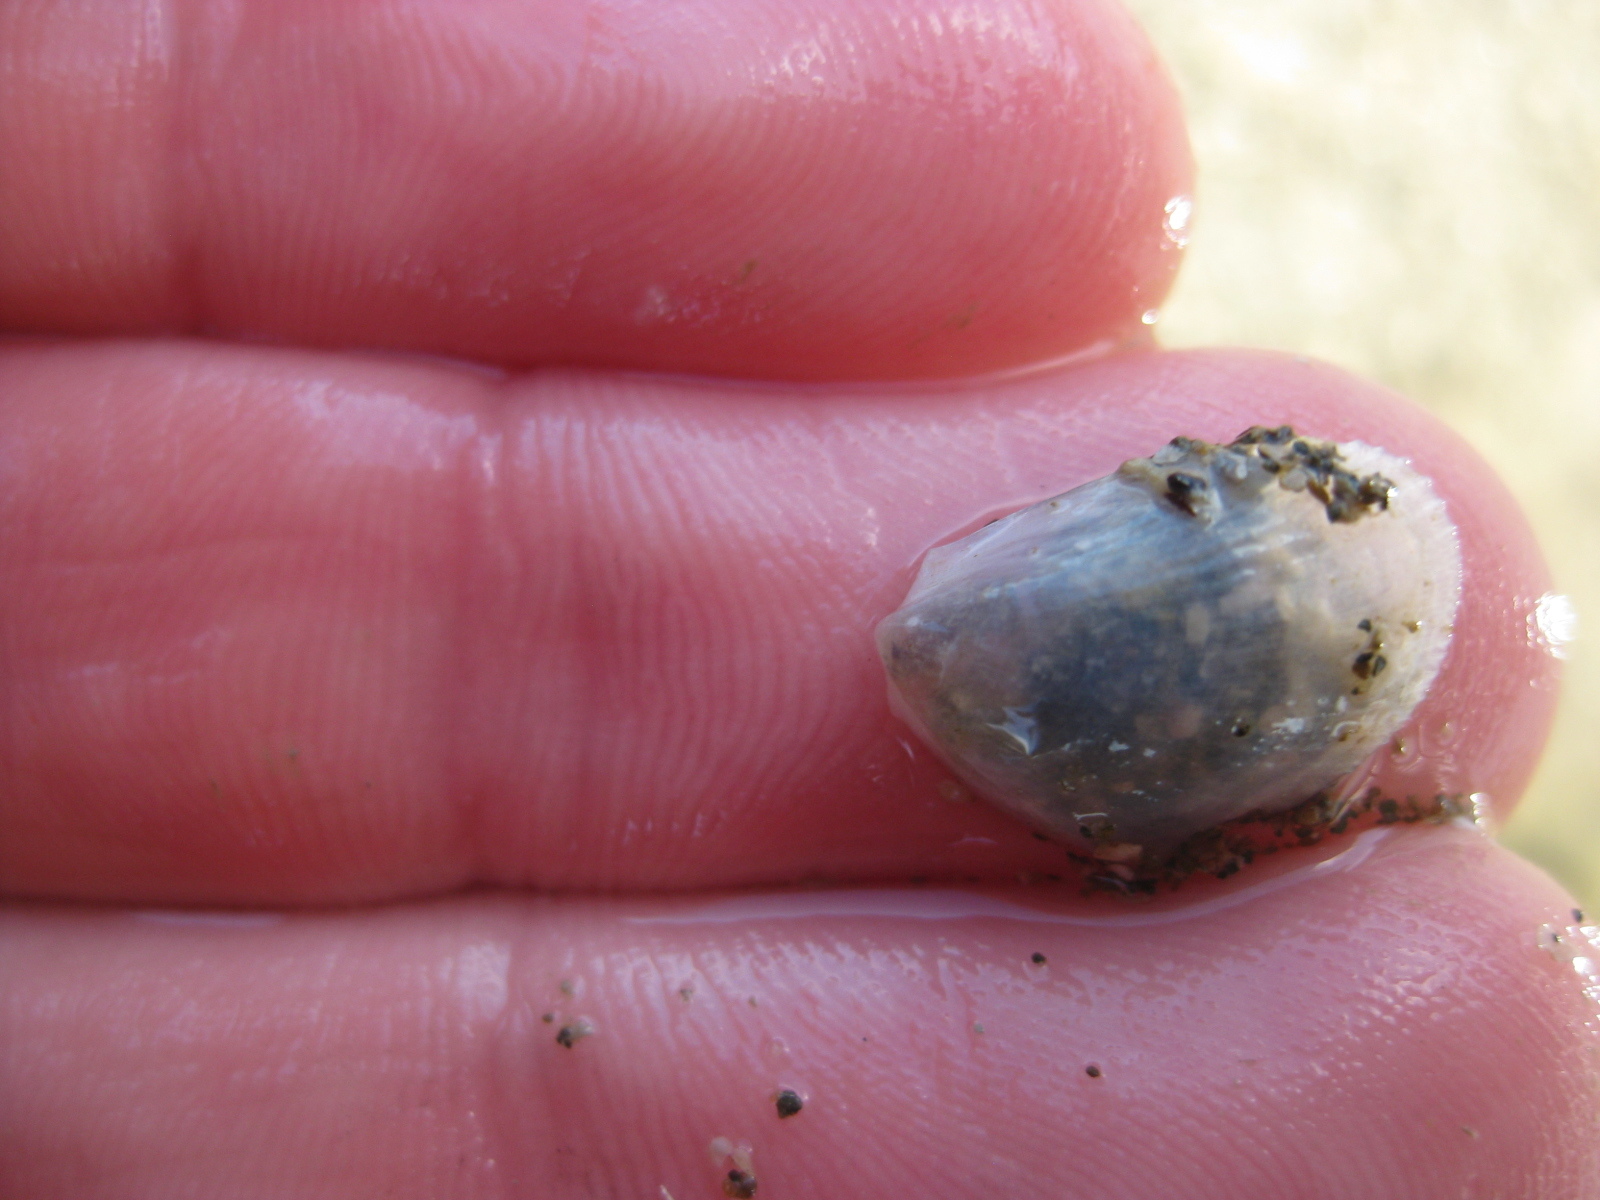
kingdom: Animalia
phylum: Mollusca
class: Bivalvia
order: Limida
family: Limidae
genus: Limaria
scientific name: Limaria orientalis
